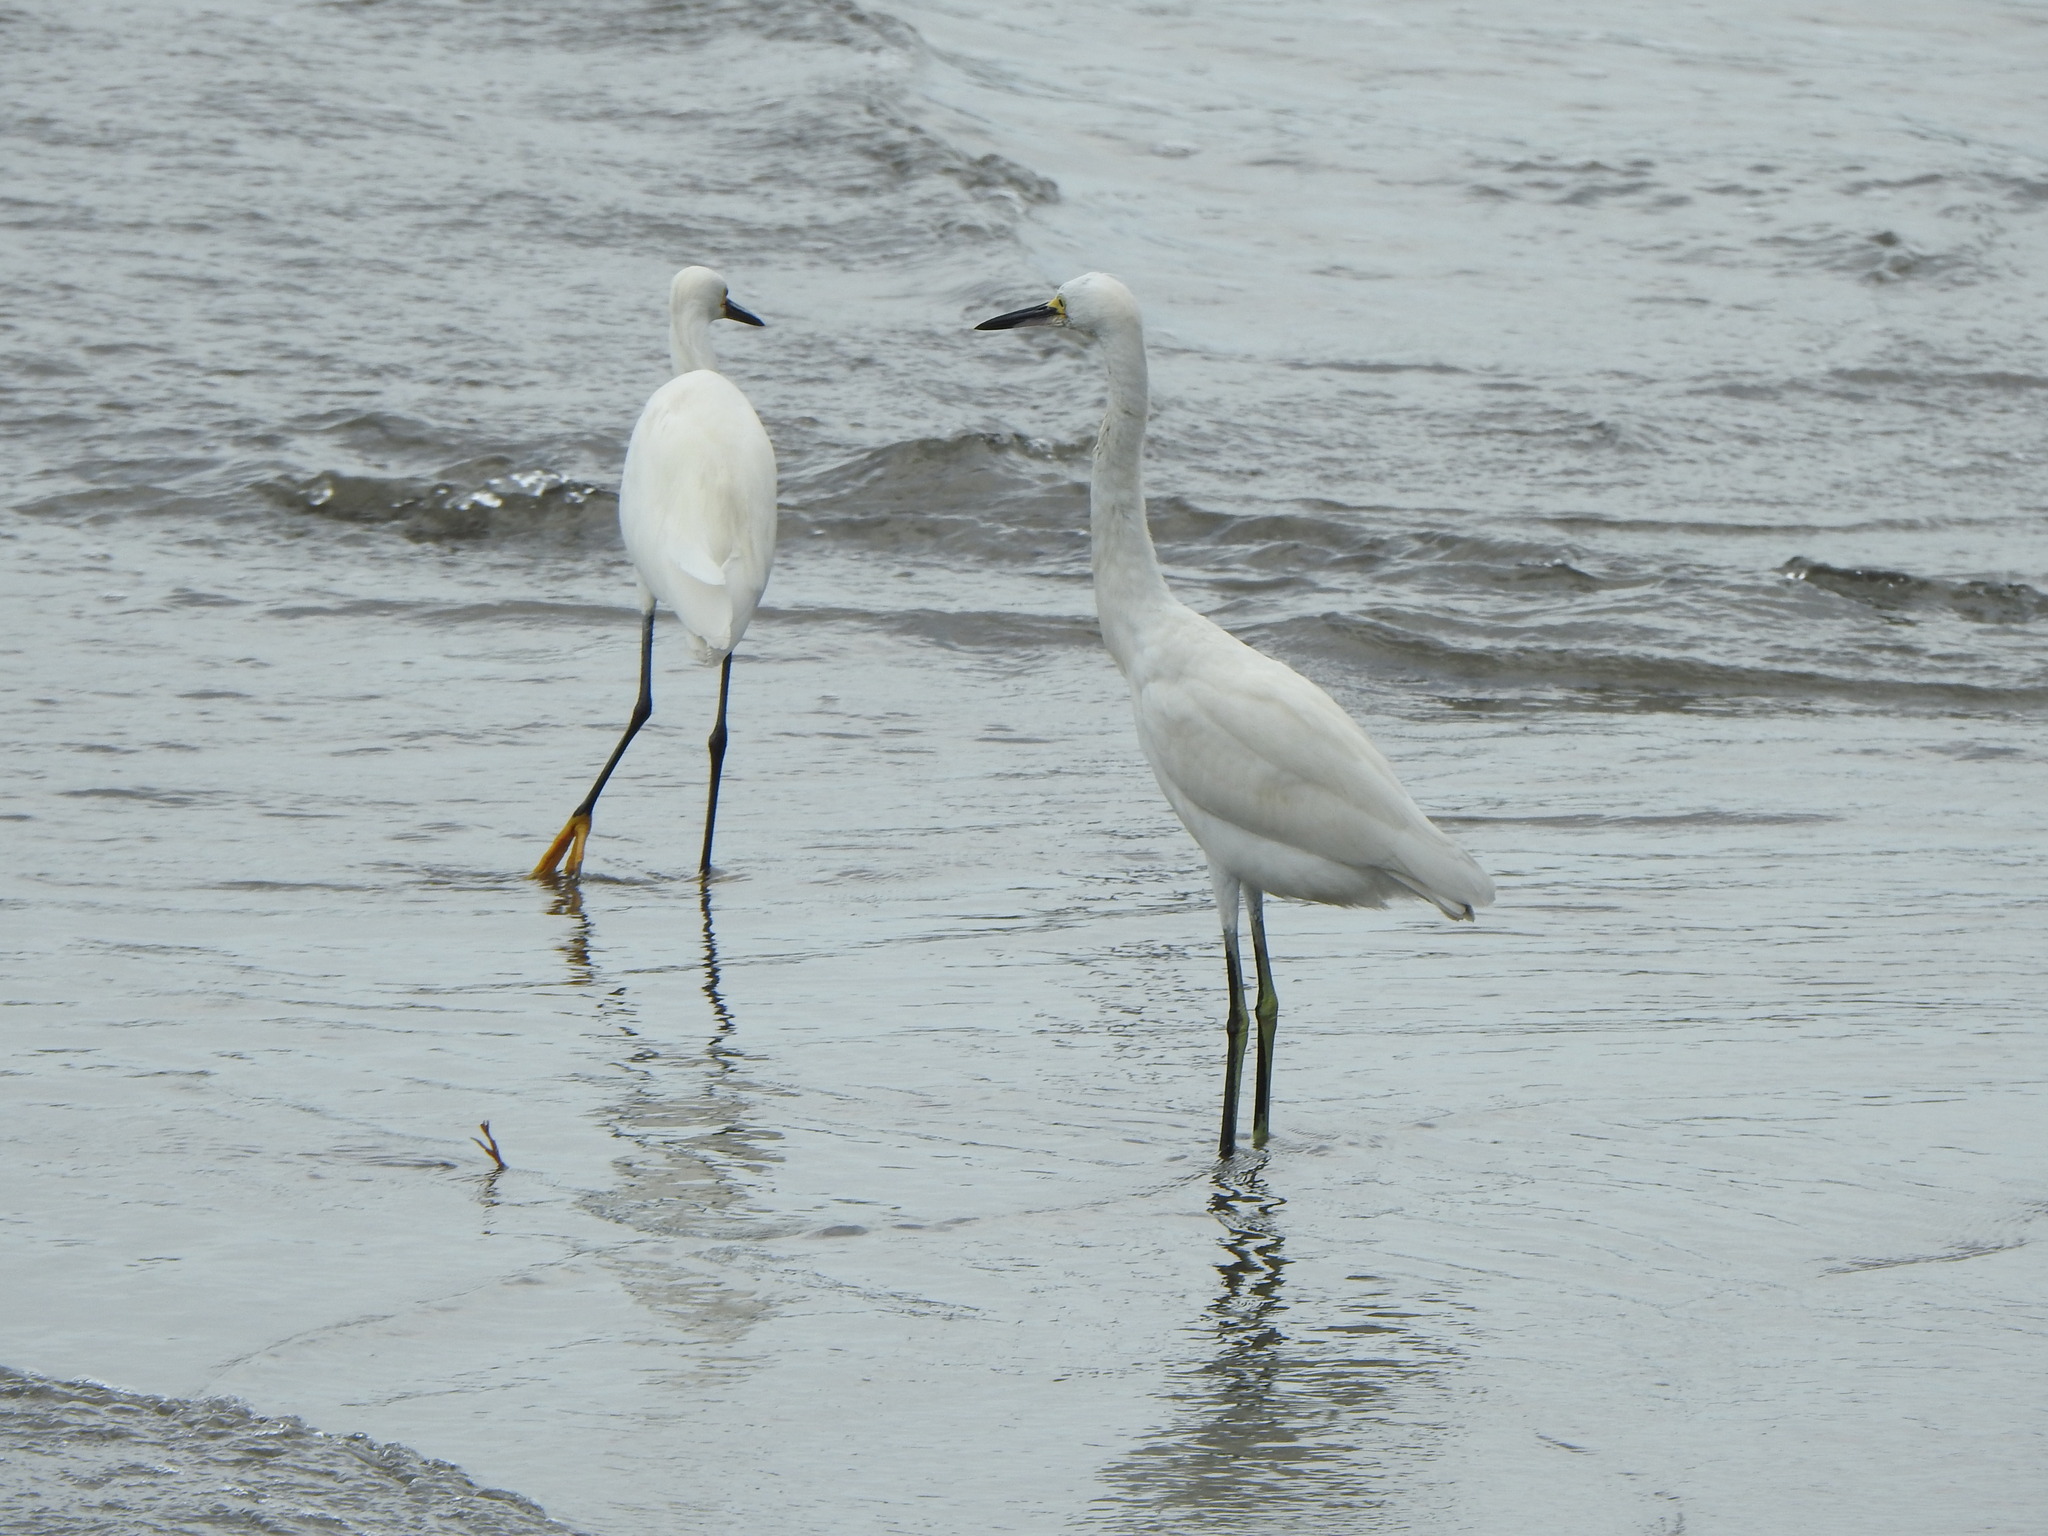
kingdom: Animalia
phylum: Chordata
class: Aves
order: Pelecaniformes
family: Ardeidae
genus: Egretta
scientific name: Egretta thula
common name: Snowy egret
